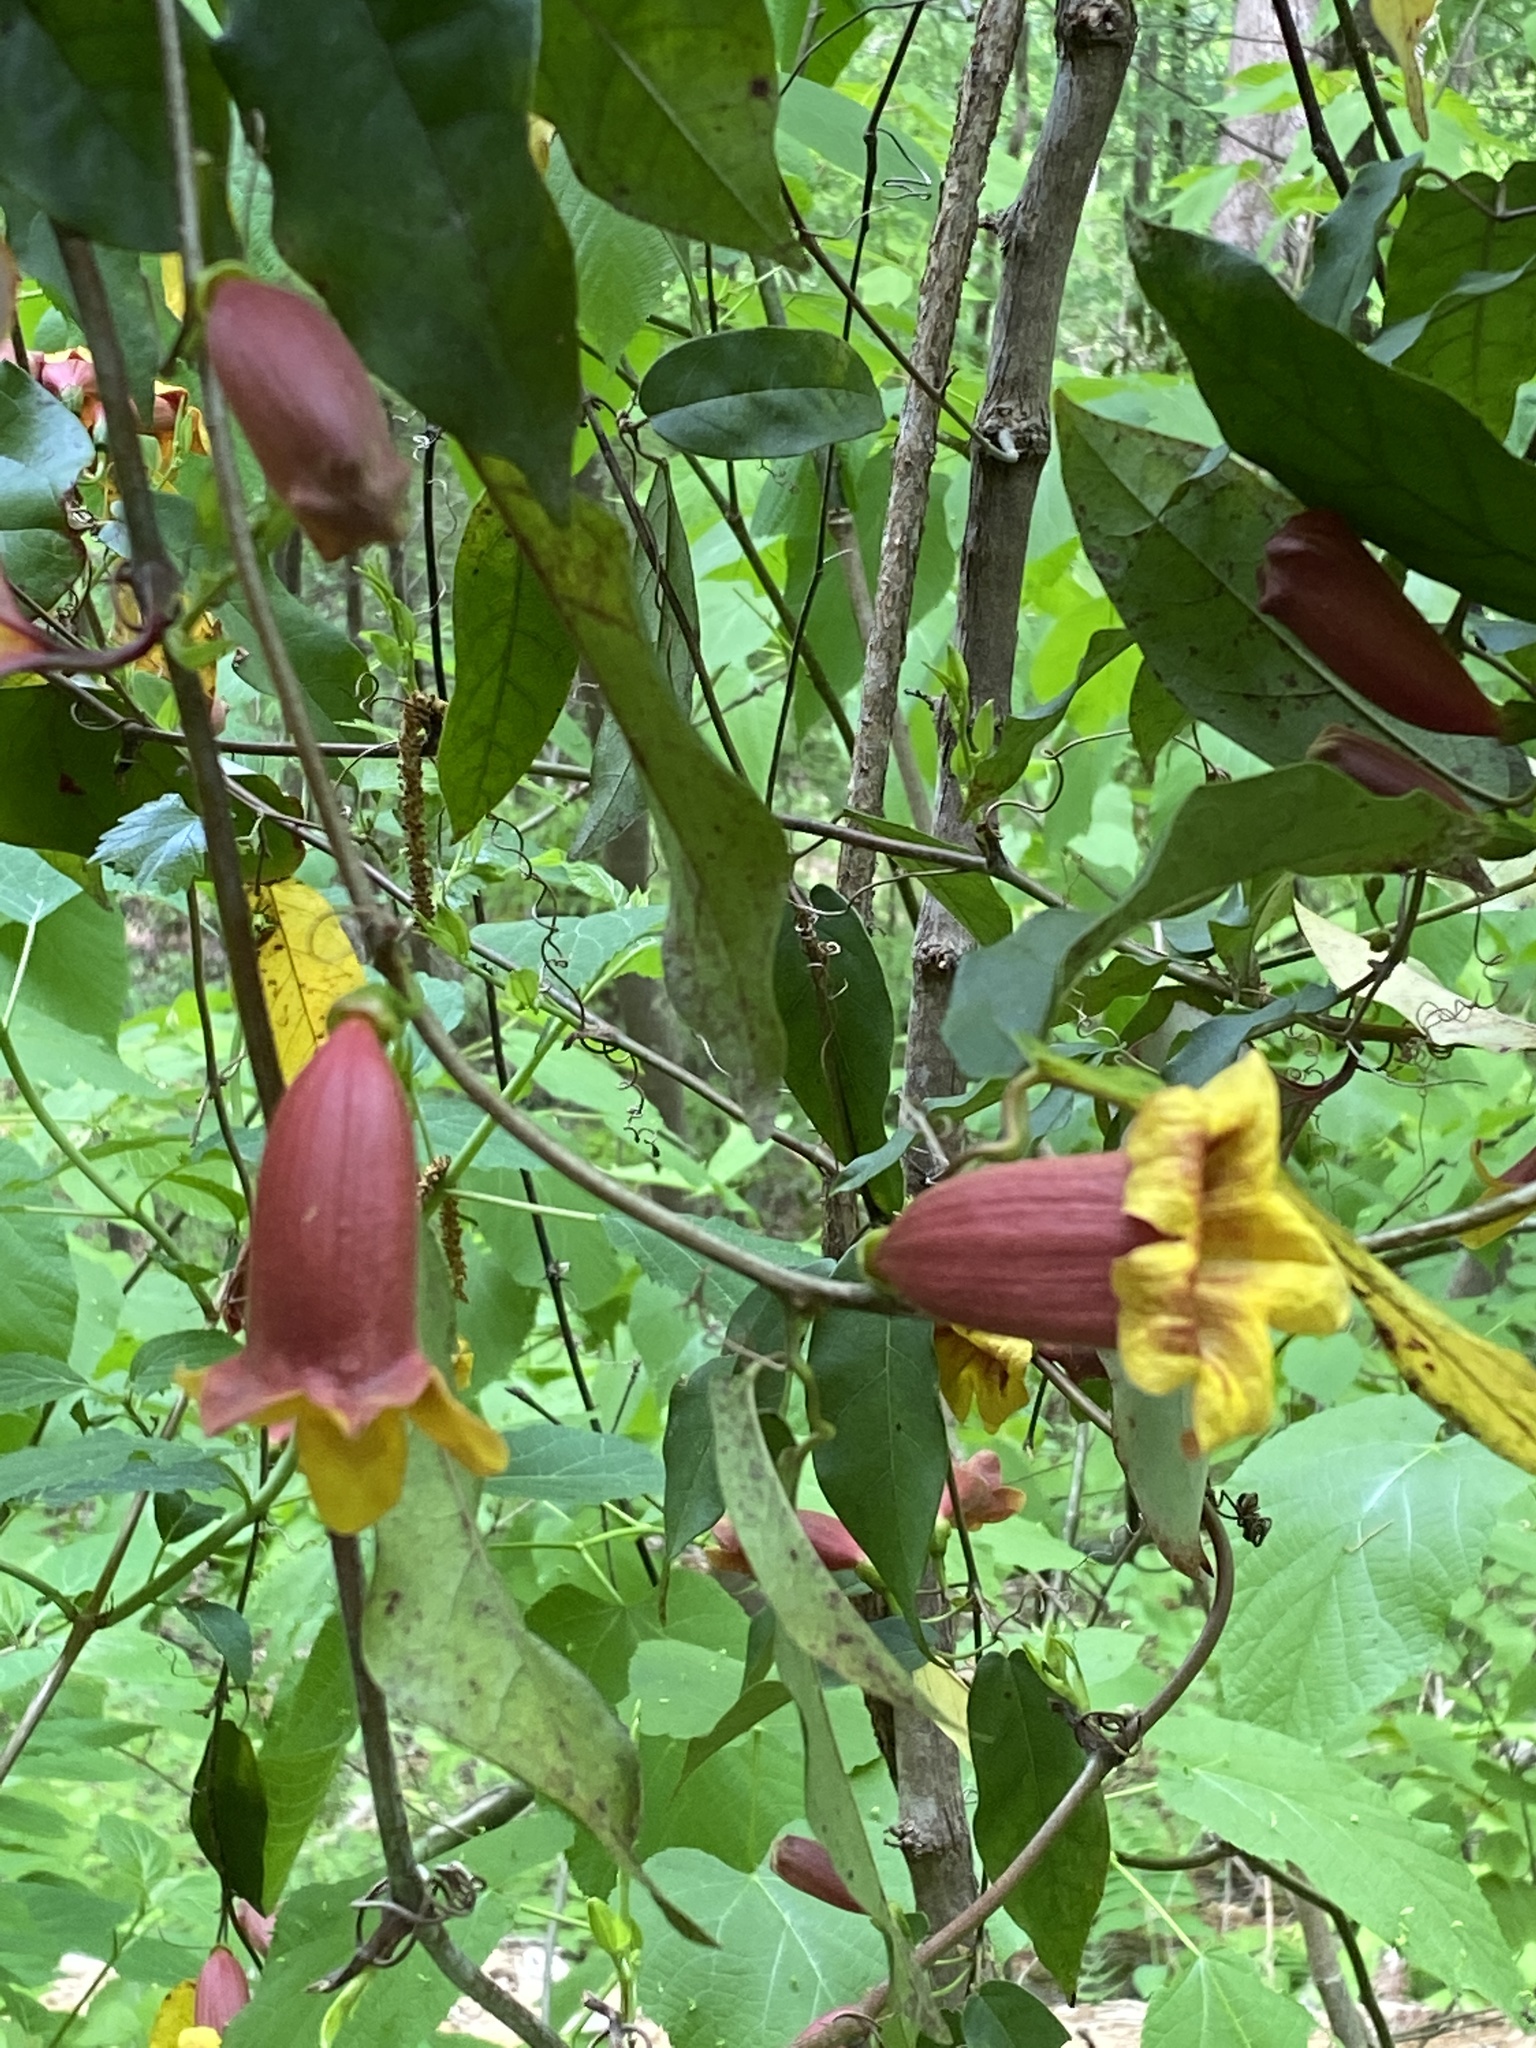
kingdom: Plantae
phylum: Tracheophyta
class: Magnoliopsida
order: Lamiales
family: Bignoniaceae
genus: Bignonia
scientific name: Bignonia capreolata
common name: Crossvine
